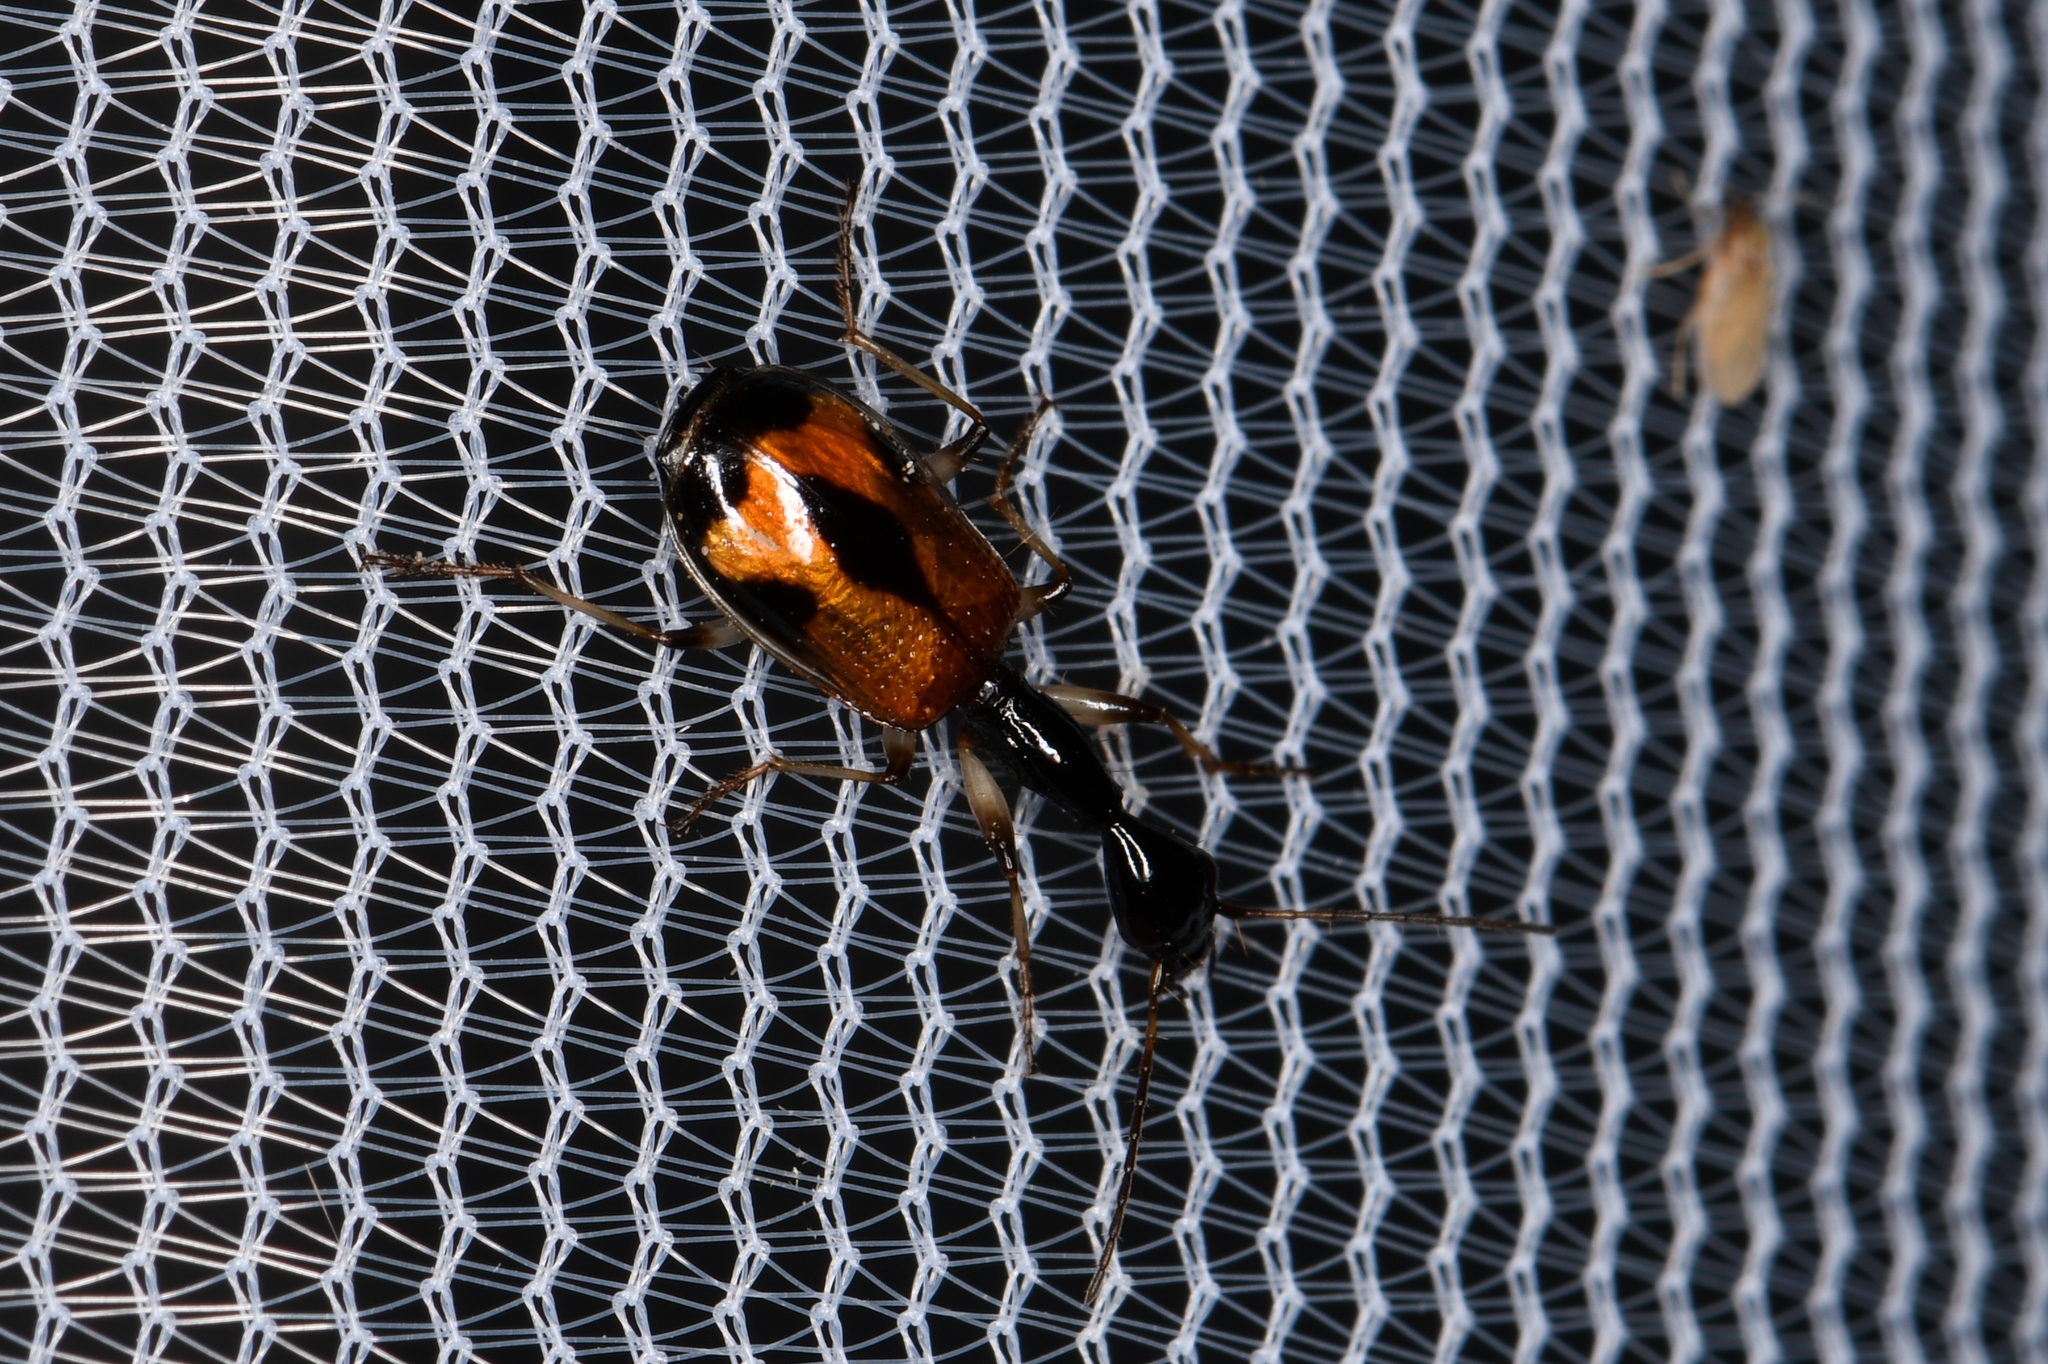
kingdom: Animalia
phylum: Arthropoda
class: Insecta
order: Coleoptera
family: Carabidae
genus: Colliuris
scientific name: Colliuris pensylvanica
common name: Long-necked ground beetle
